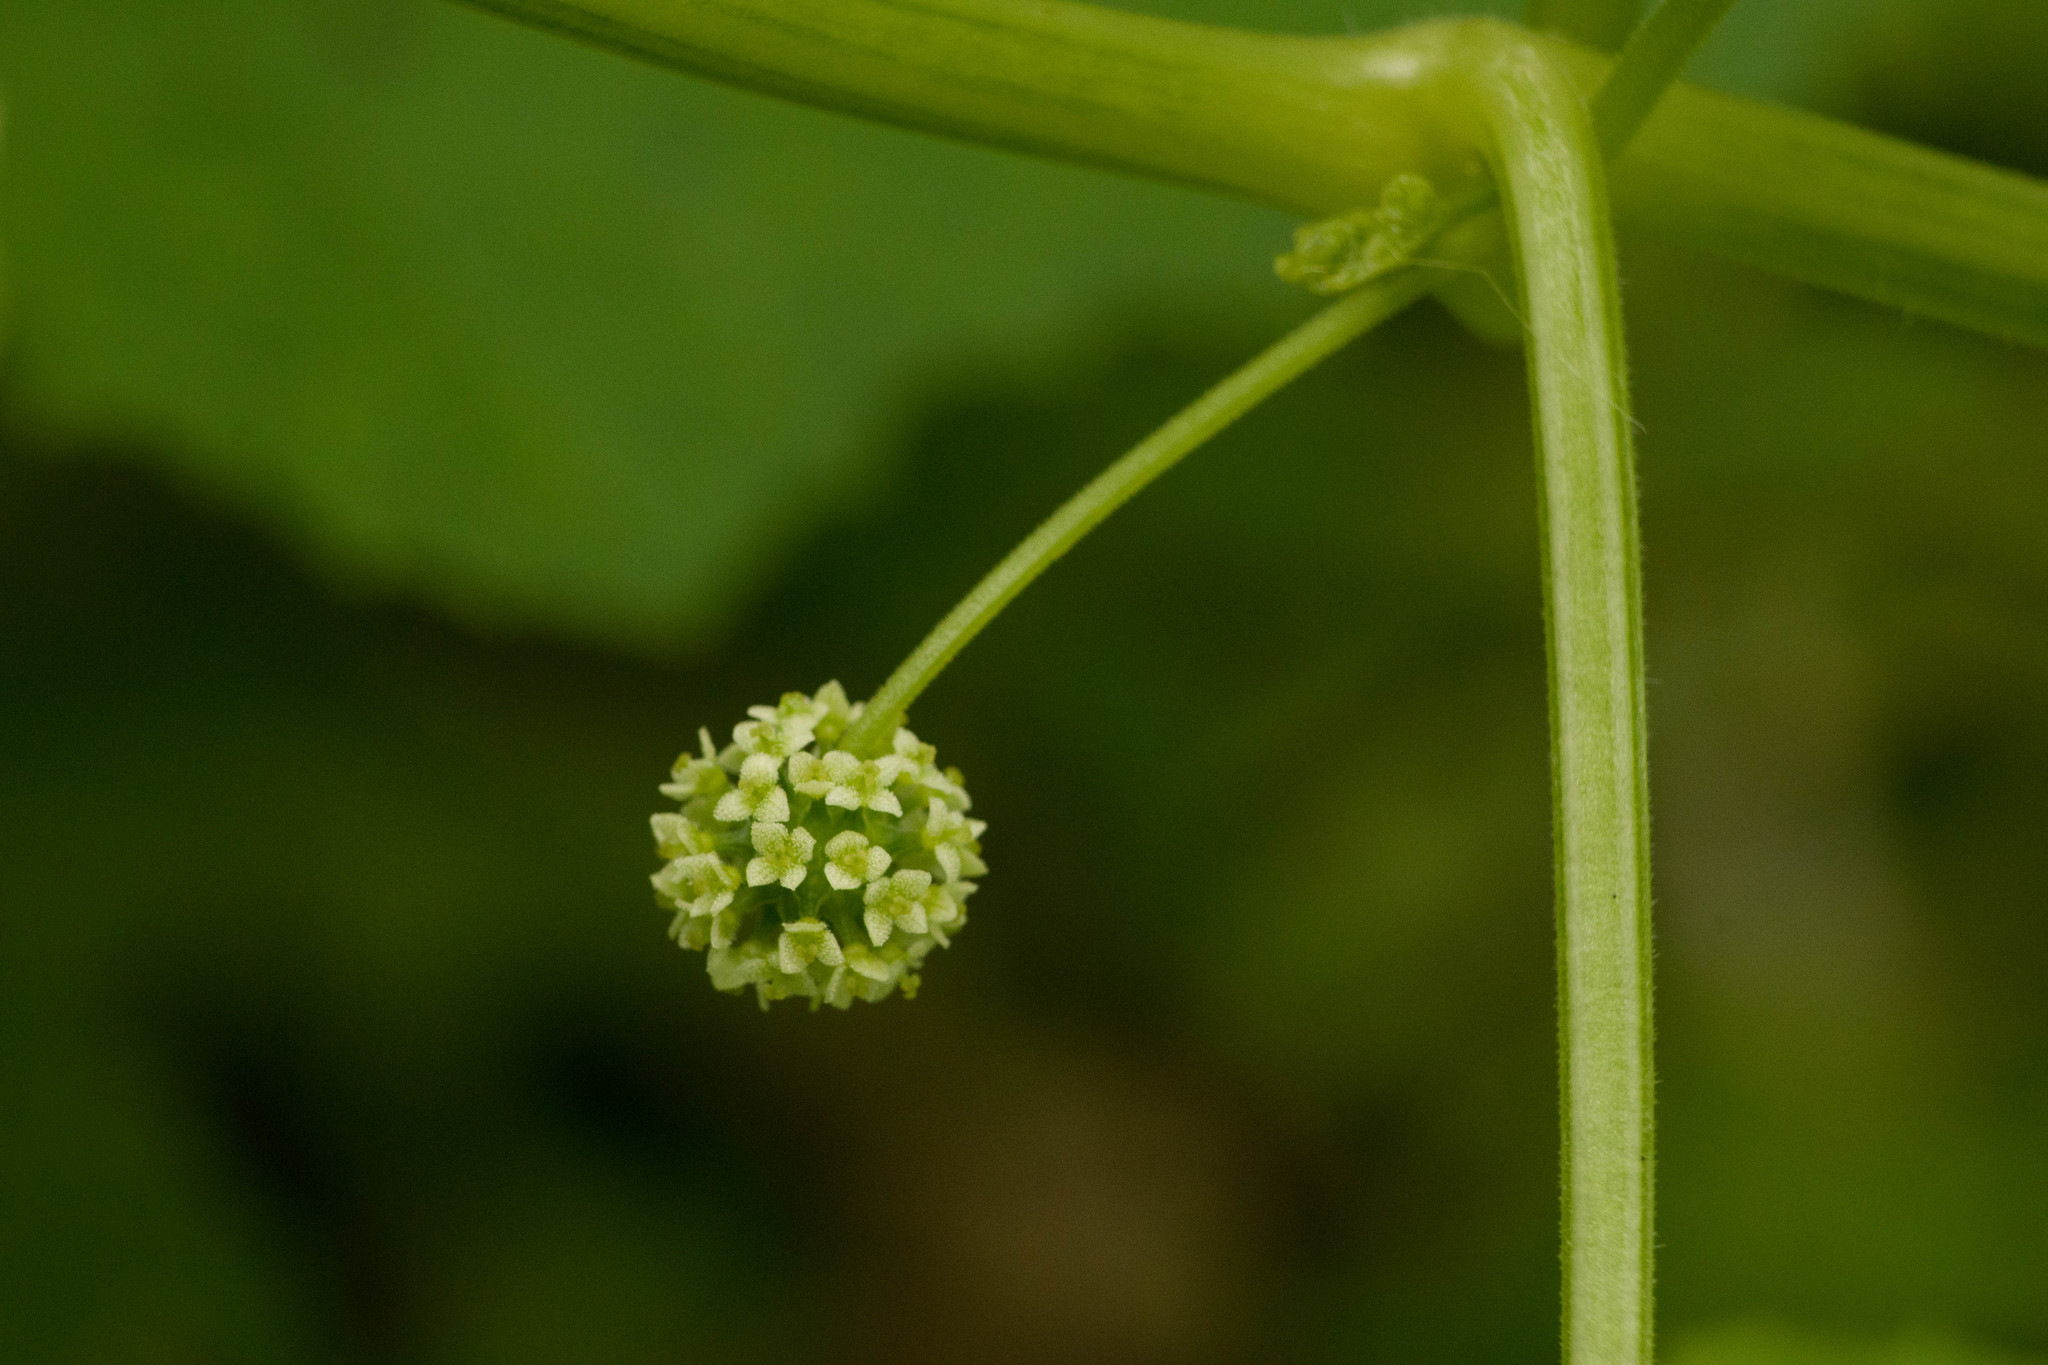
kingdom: Plantae
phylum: Tracheophyta
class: Magnoliopsida
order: Cucurbitales
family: Cucurbitaceae
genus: Sicyos
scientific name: Sicyos pachycarpa
